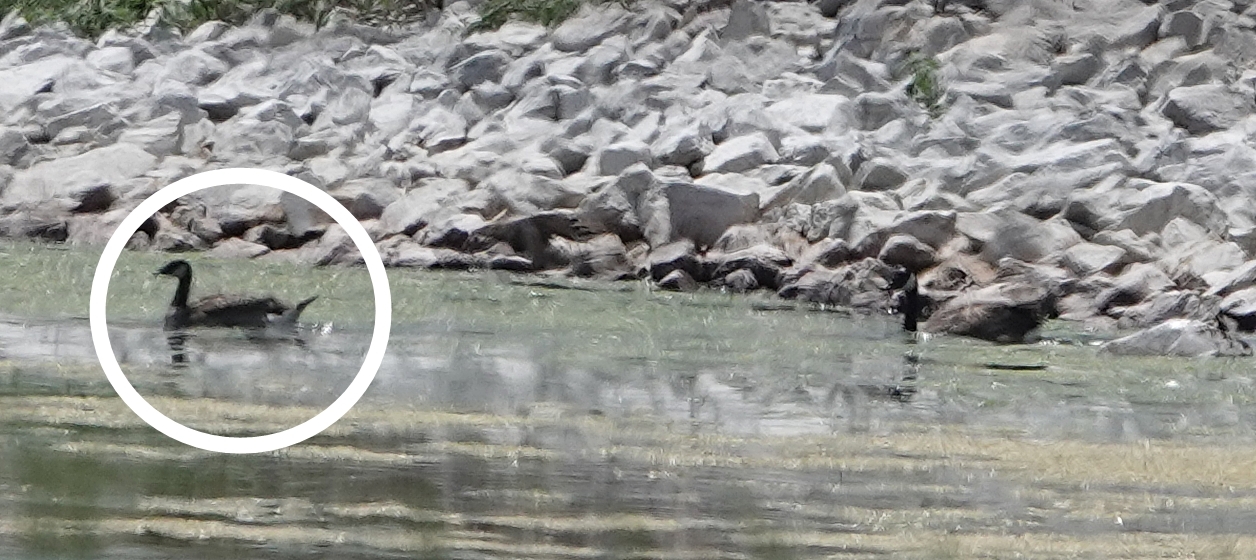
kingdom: Animalia
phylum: Chordata
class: Aves
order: Anseriformes
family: Anatidae
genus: Branta
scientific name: Branta hutchinsii
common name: Cackling goose
